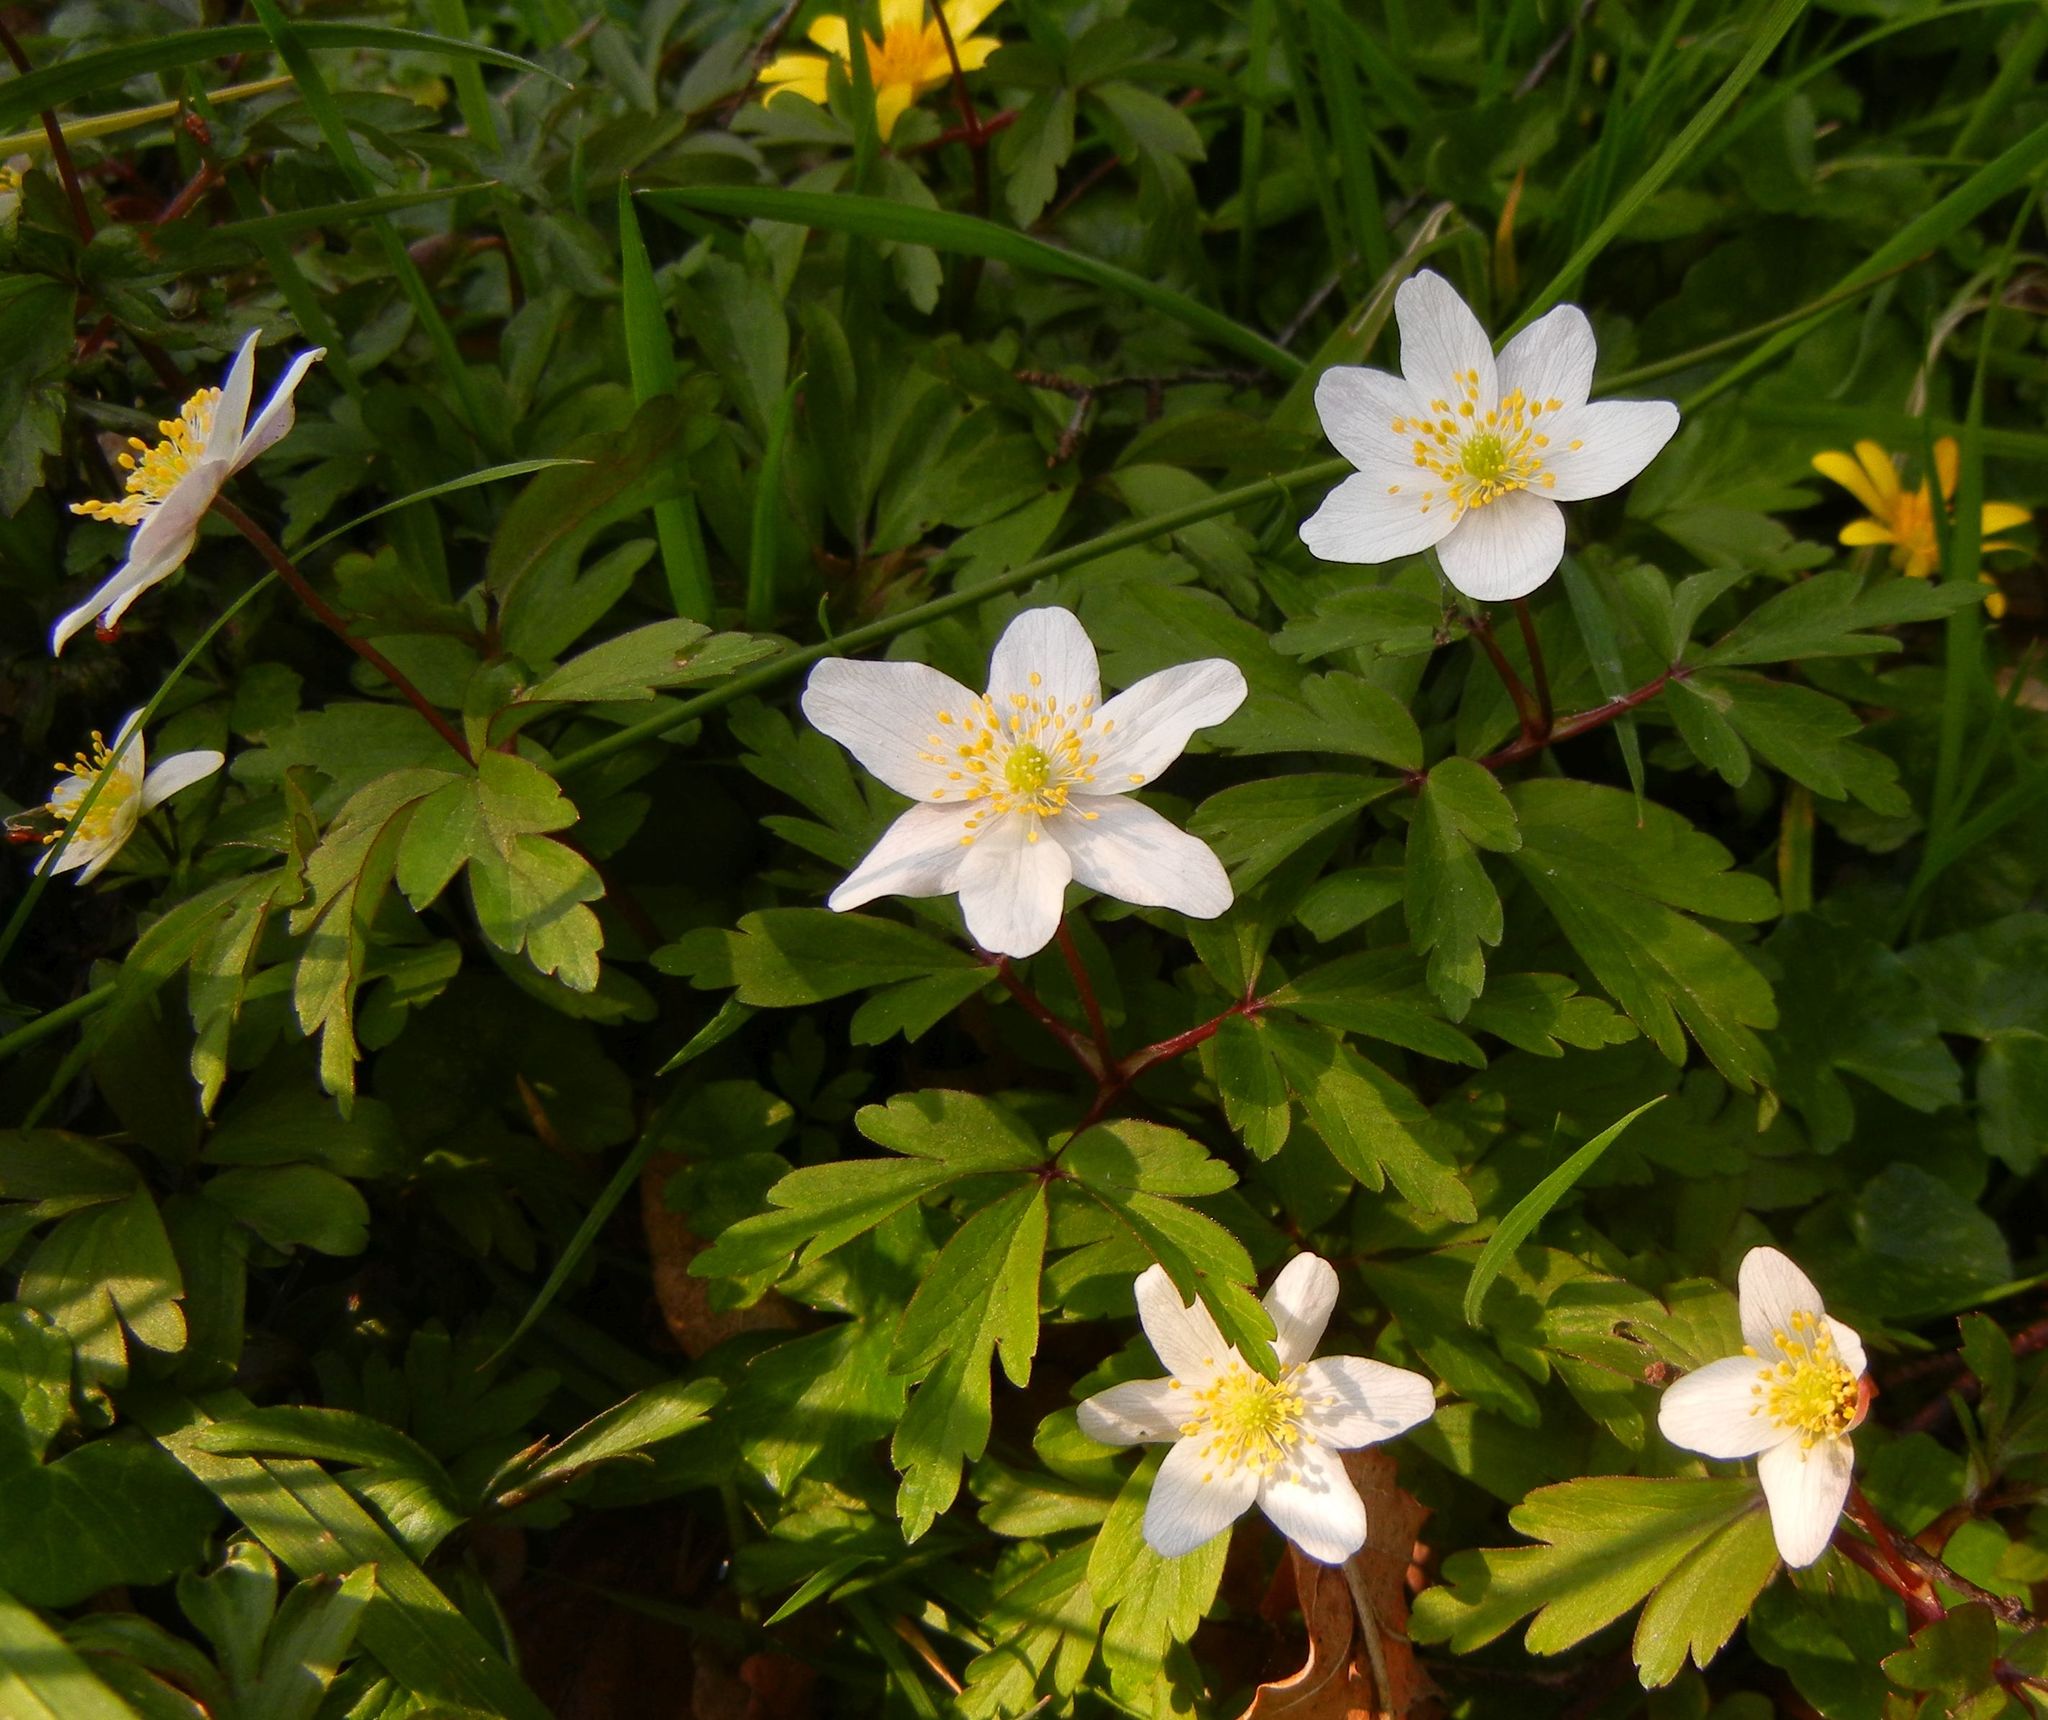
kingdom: Plantae
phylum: Tracheophyta
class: Magnoliopsida
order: Ranunculales
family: Ranunculaceae
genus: Anemone
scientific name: Anemone nemorosa
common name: Wood anemone
